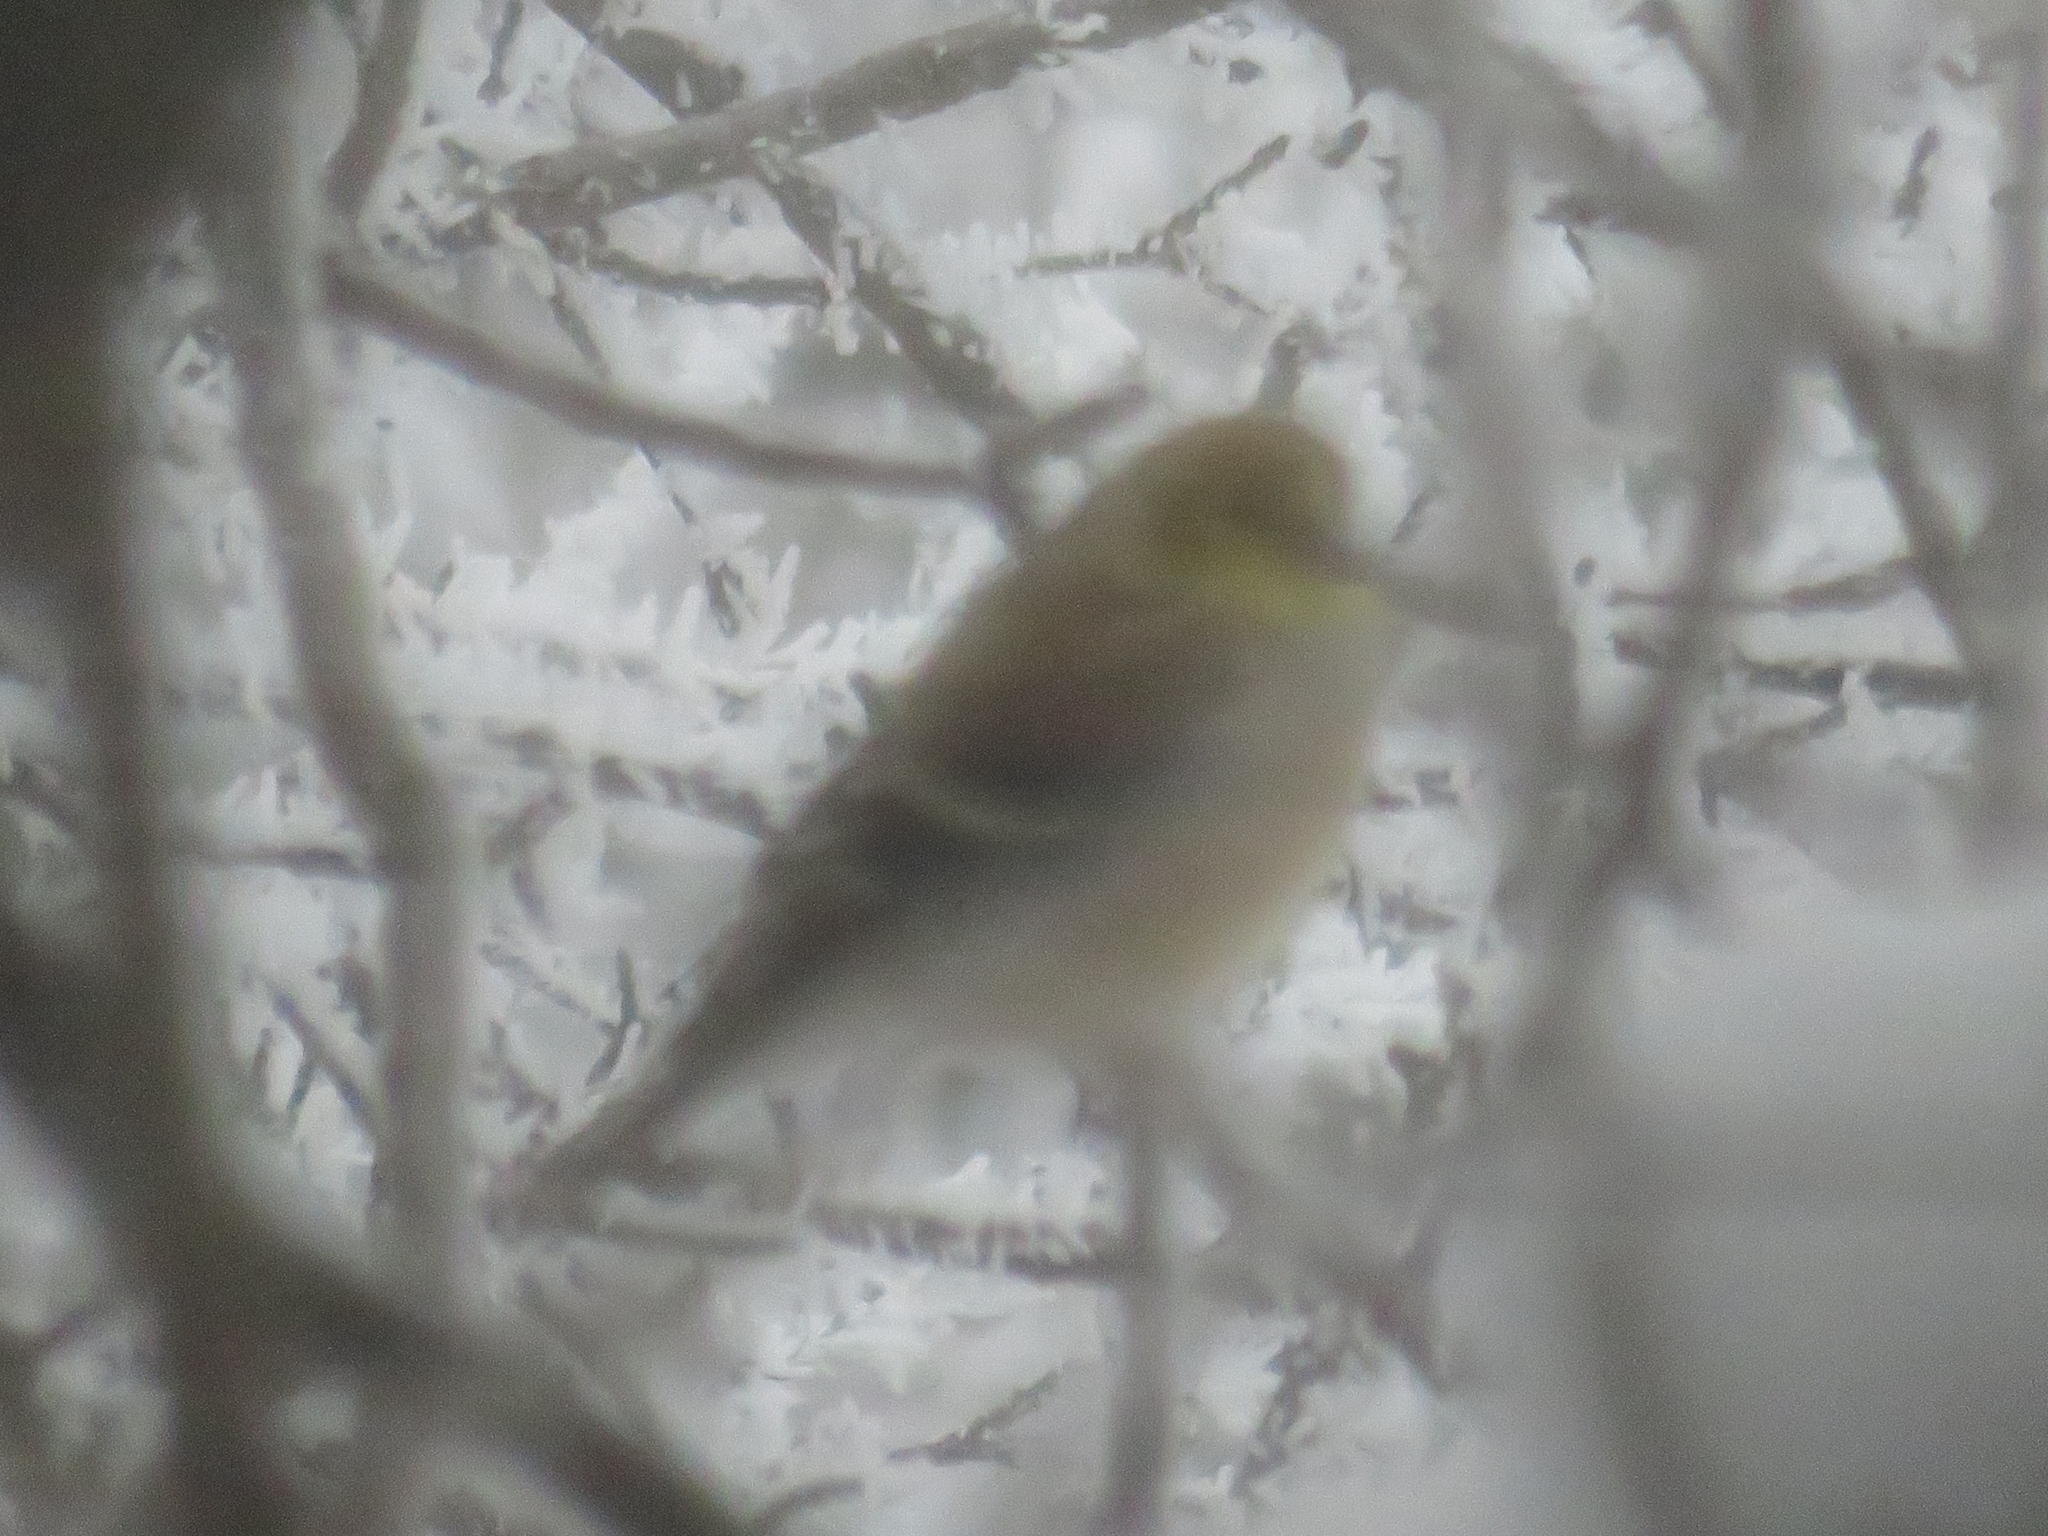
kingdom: Animalia
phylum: Chordata
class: Aves
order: Passeriformes
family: Fringillidae
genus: Spinus
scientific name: Spinus tristis
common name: American goldfinch
